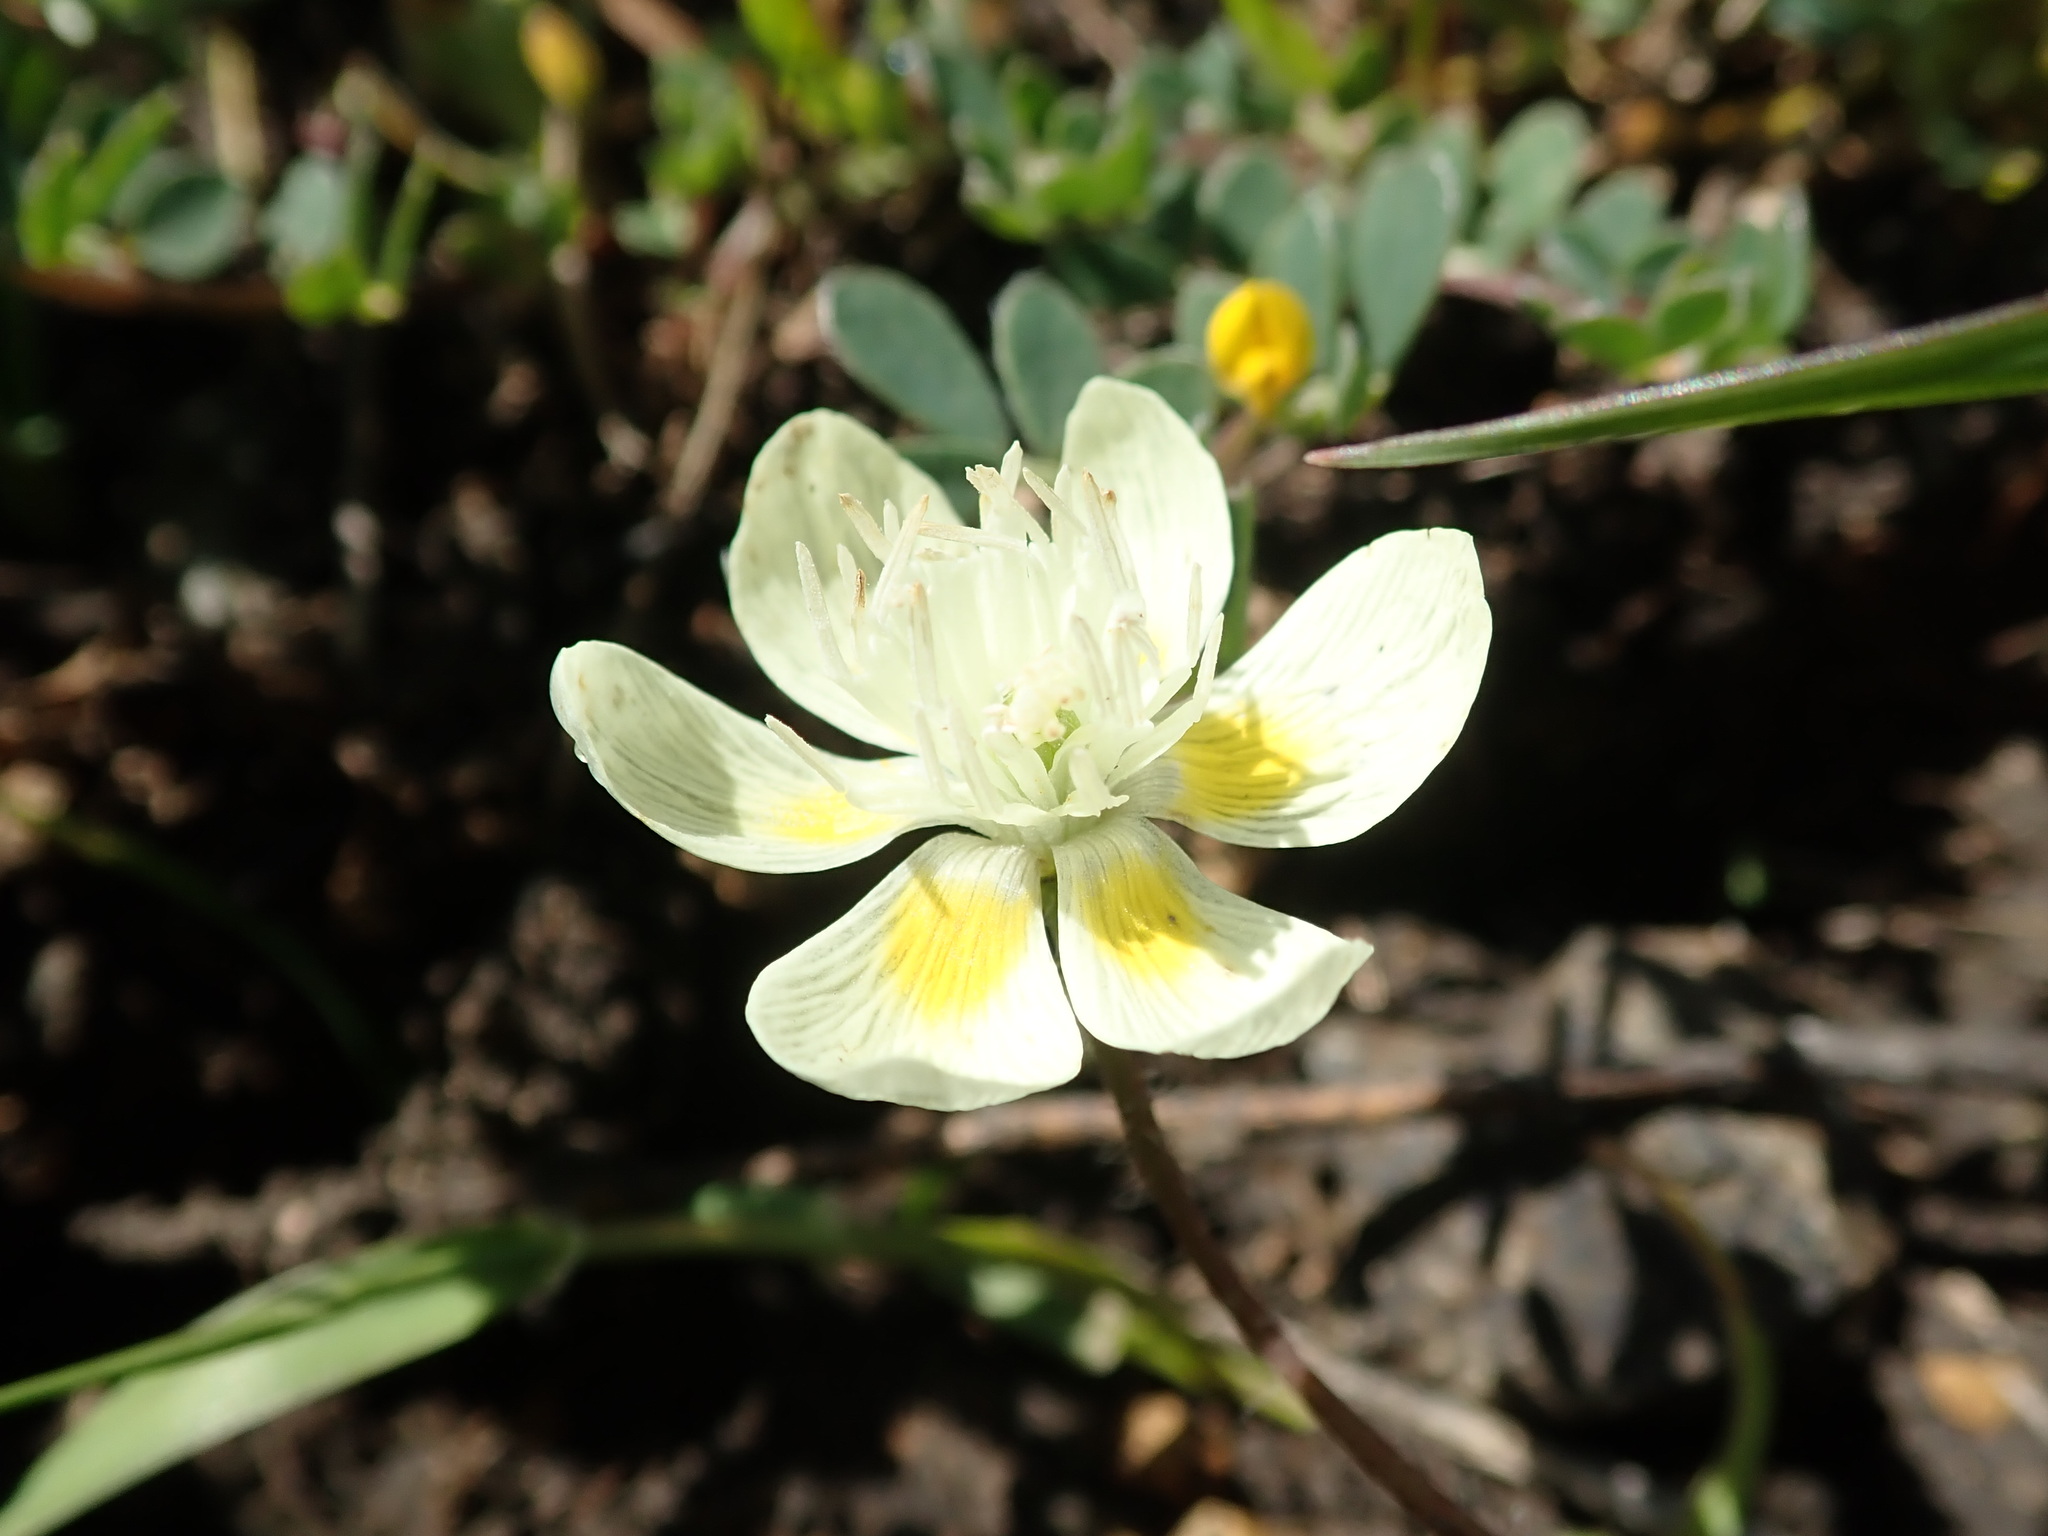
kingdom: Plantae
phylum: Tracheophyta
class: Magnoliopsida
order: Ranunculales
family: Papaveraceae
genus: Platystemon
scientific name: Platystemon californicus
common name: Cream-cups
